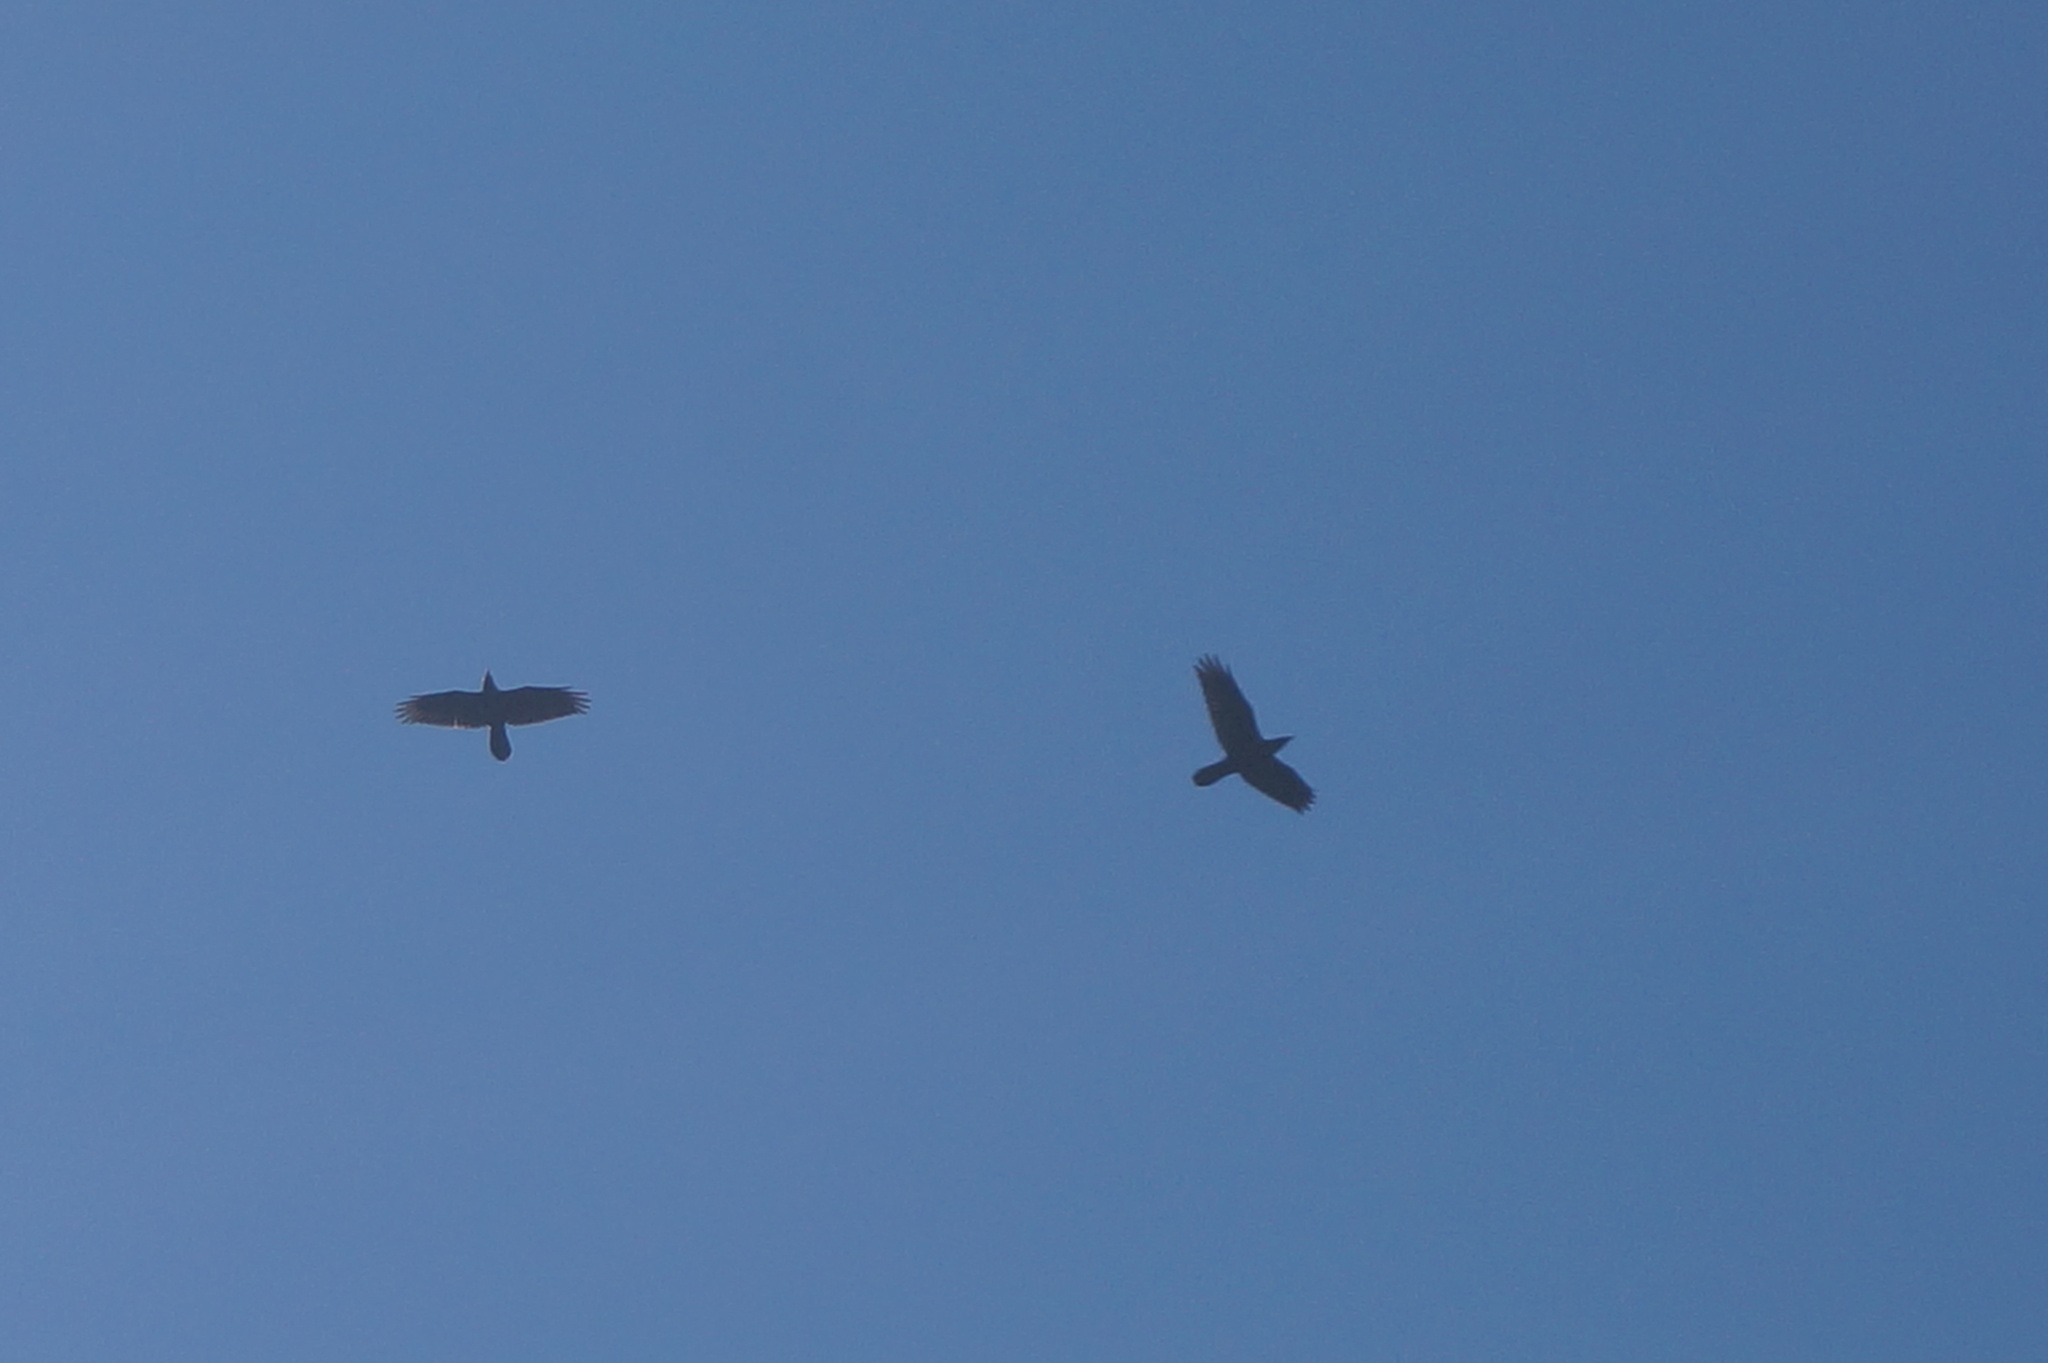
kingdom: Animalia
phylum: Chordata
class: Aves
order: Passeriformes
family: Corvidae
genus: Corvus
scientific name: Corvus corax
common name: Common raven
